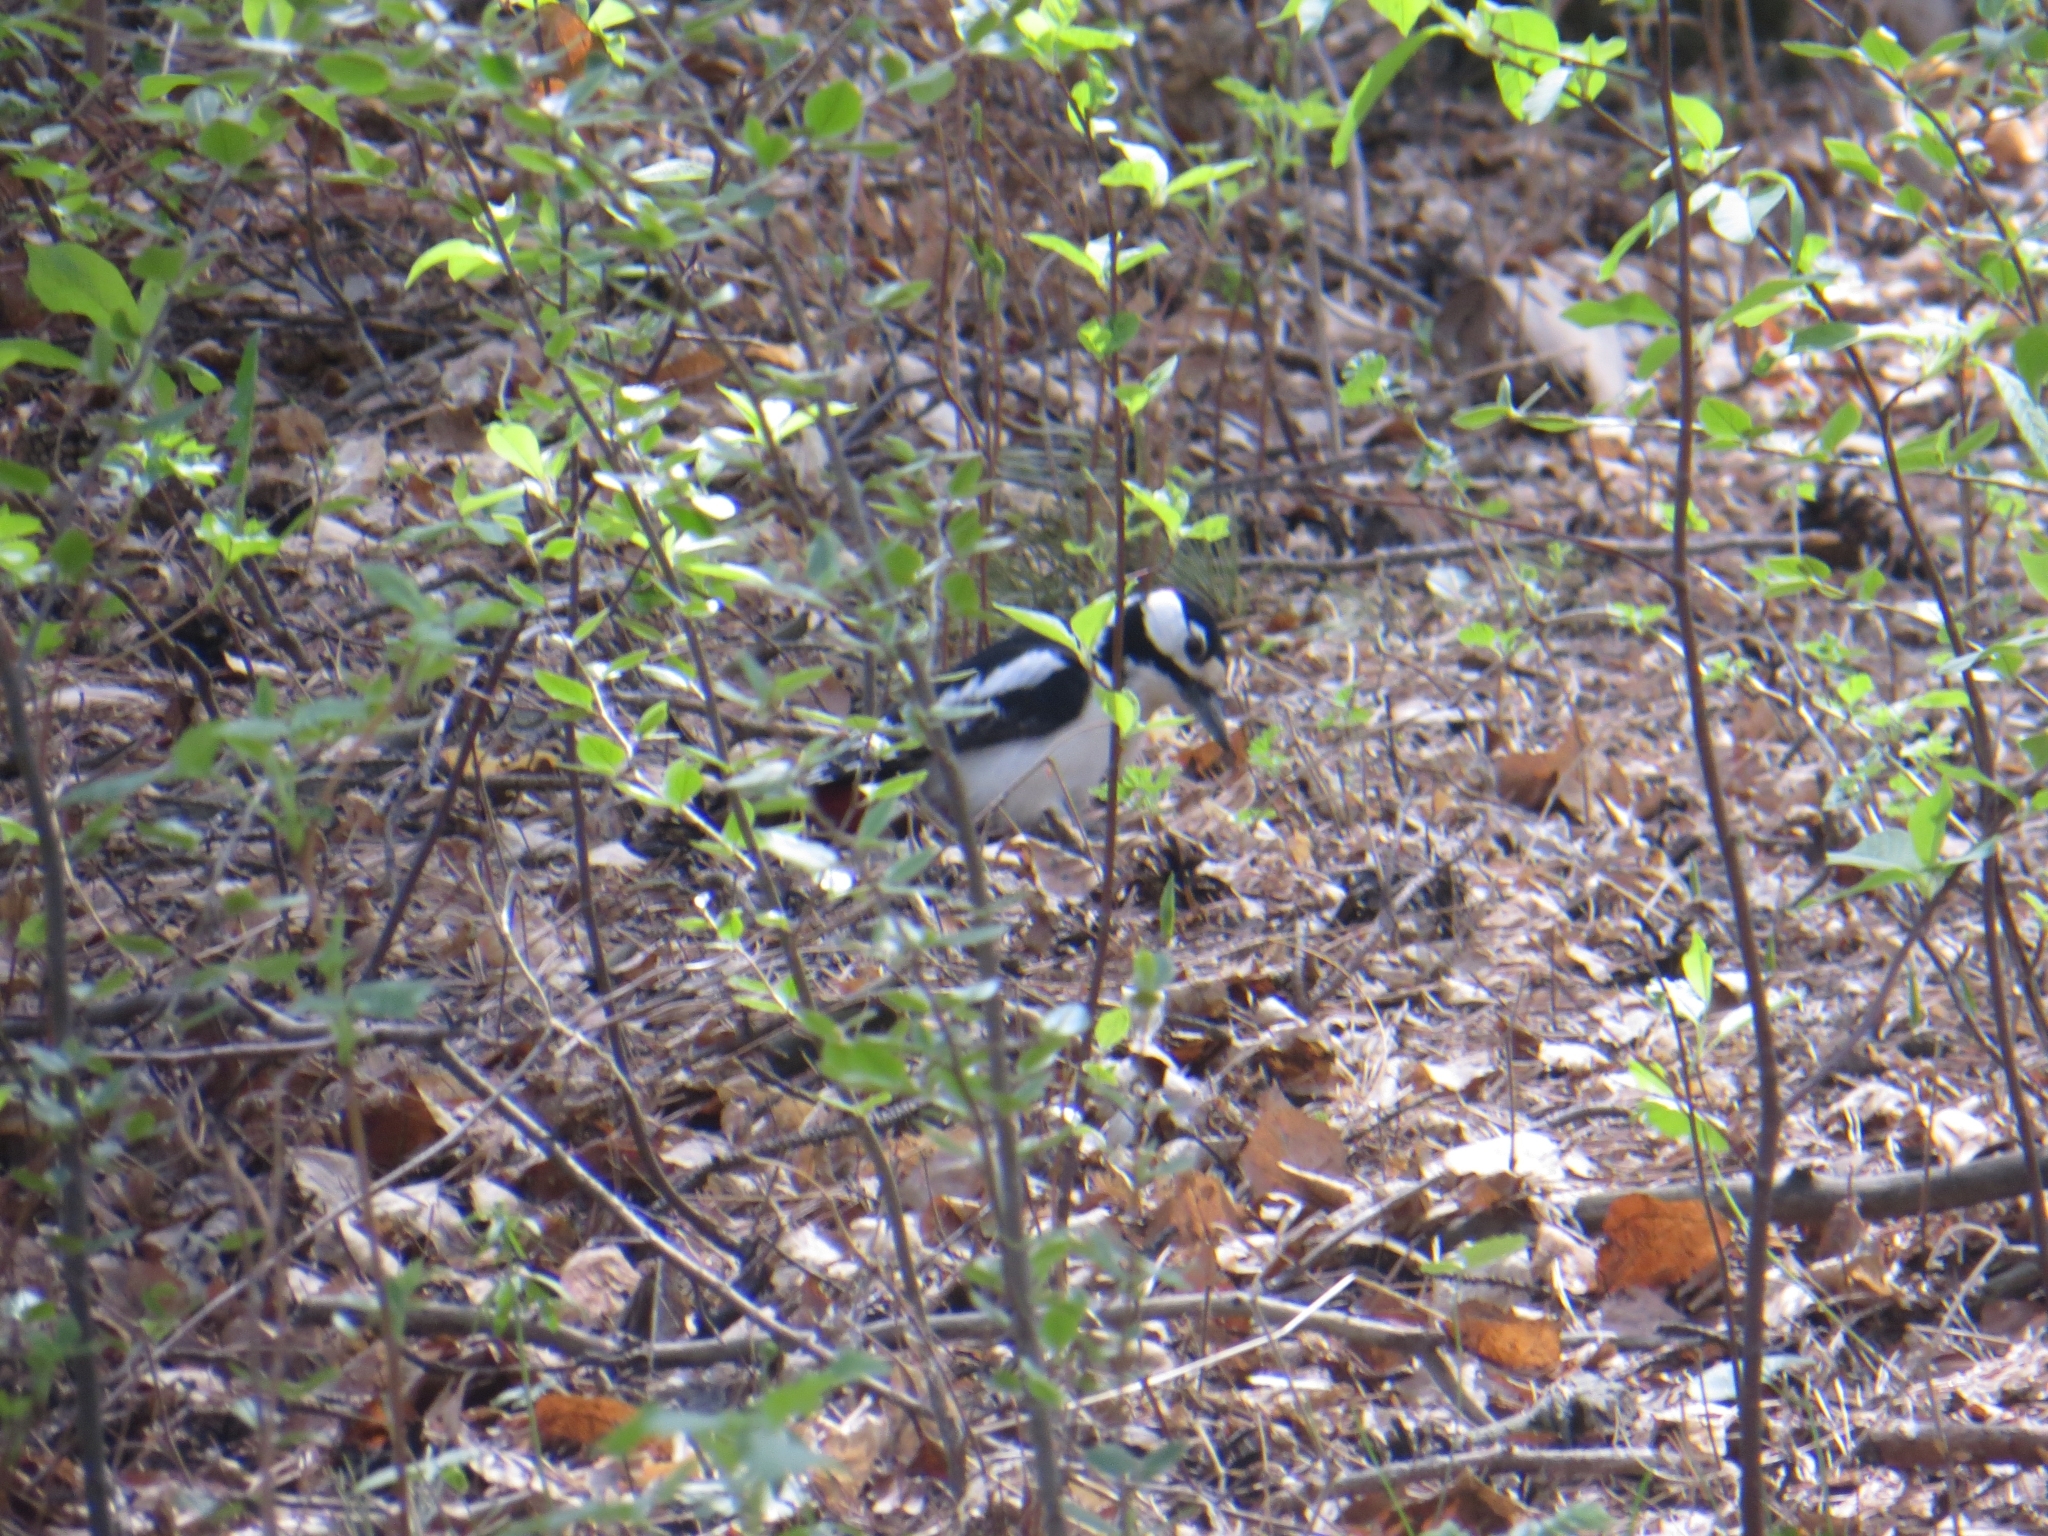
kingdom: Animalia
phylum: Chordata
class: Aves
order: Piciformes
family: Picidae
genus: Dendrocopos
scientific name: Dendrocopos major
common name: Great spotted woodpecker
